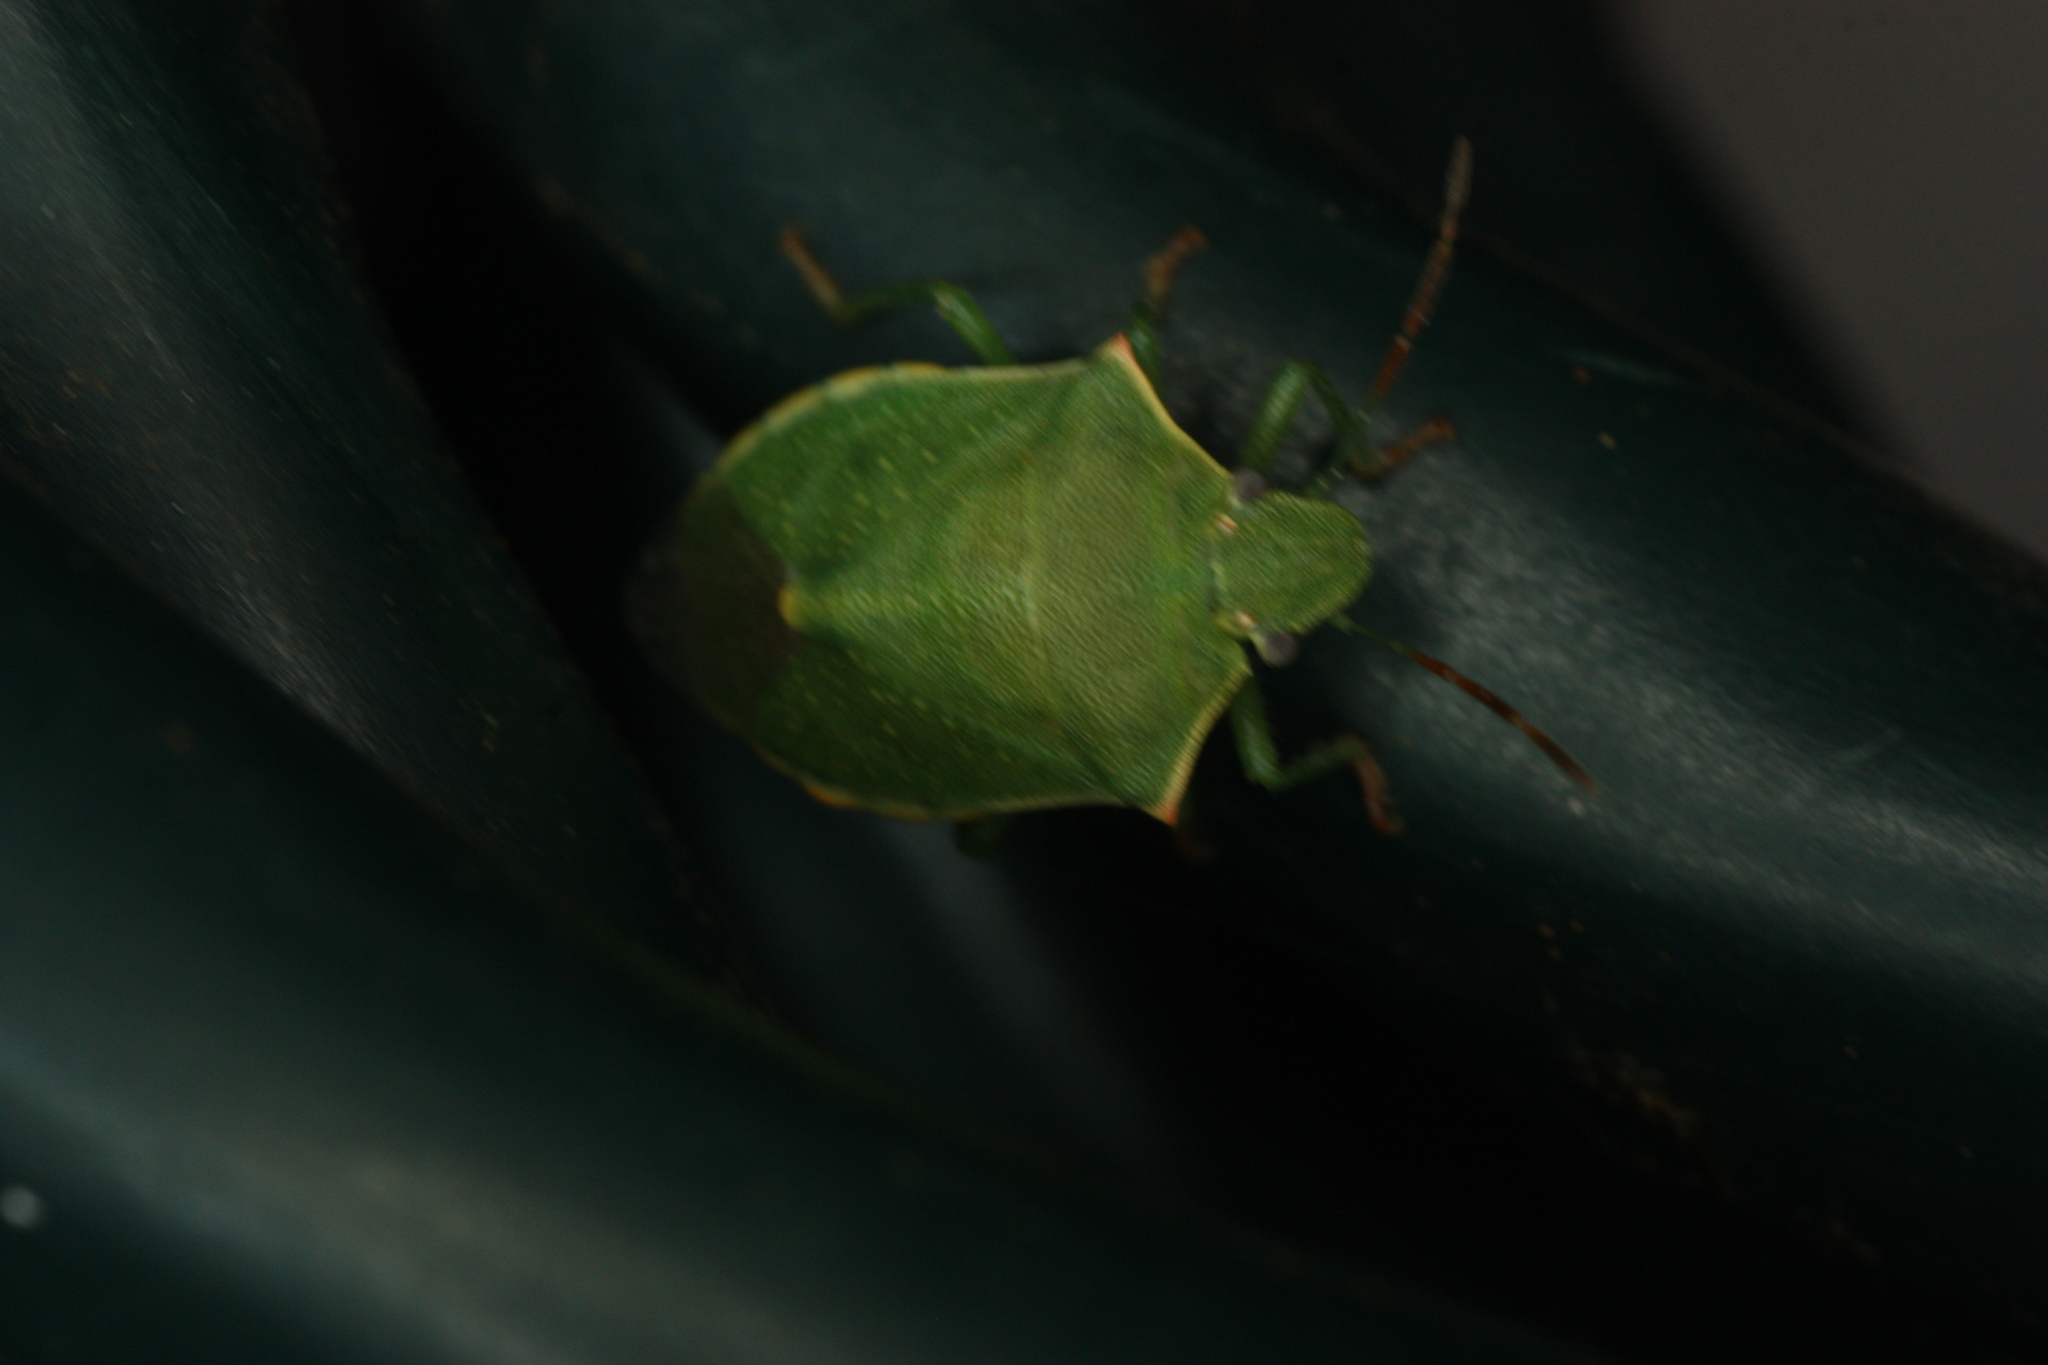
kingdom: Animalia
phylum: Arthropoda
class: Insecta
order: Hemiptera
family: Pentatomidae
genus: Thyanta
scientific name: Thyanta accerra
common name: Stink bug
